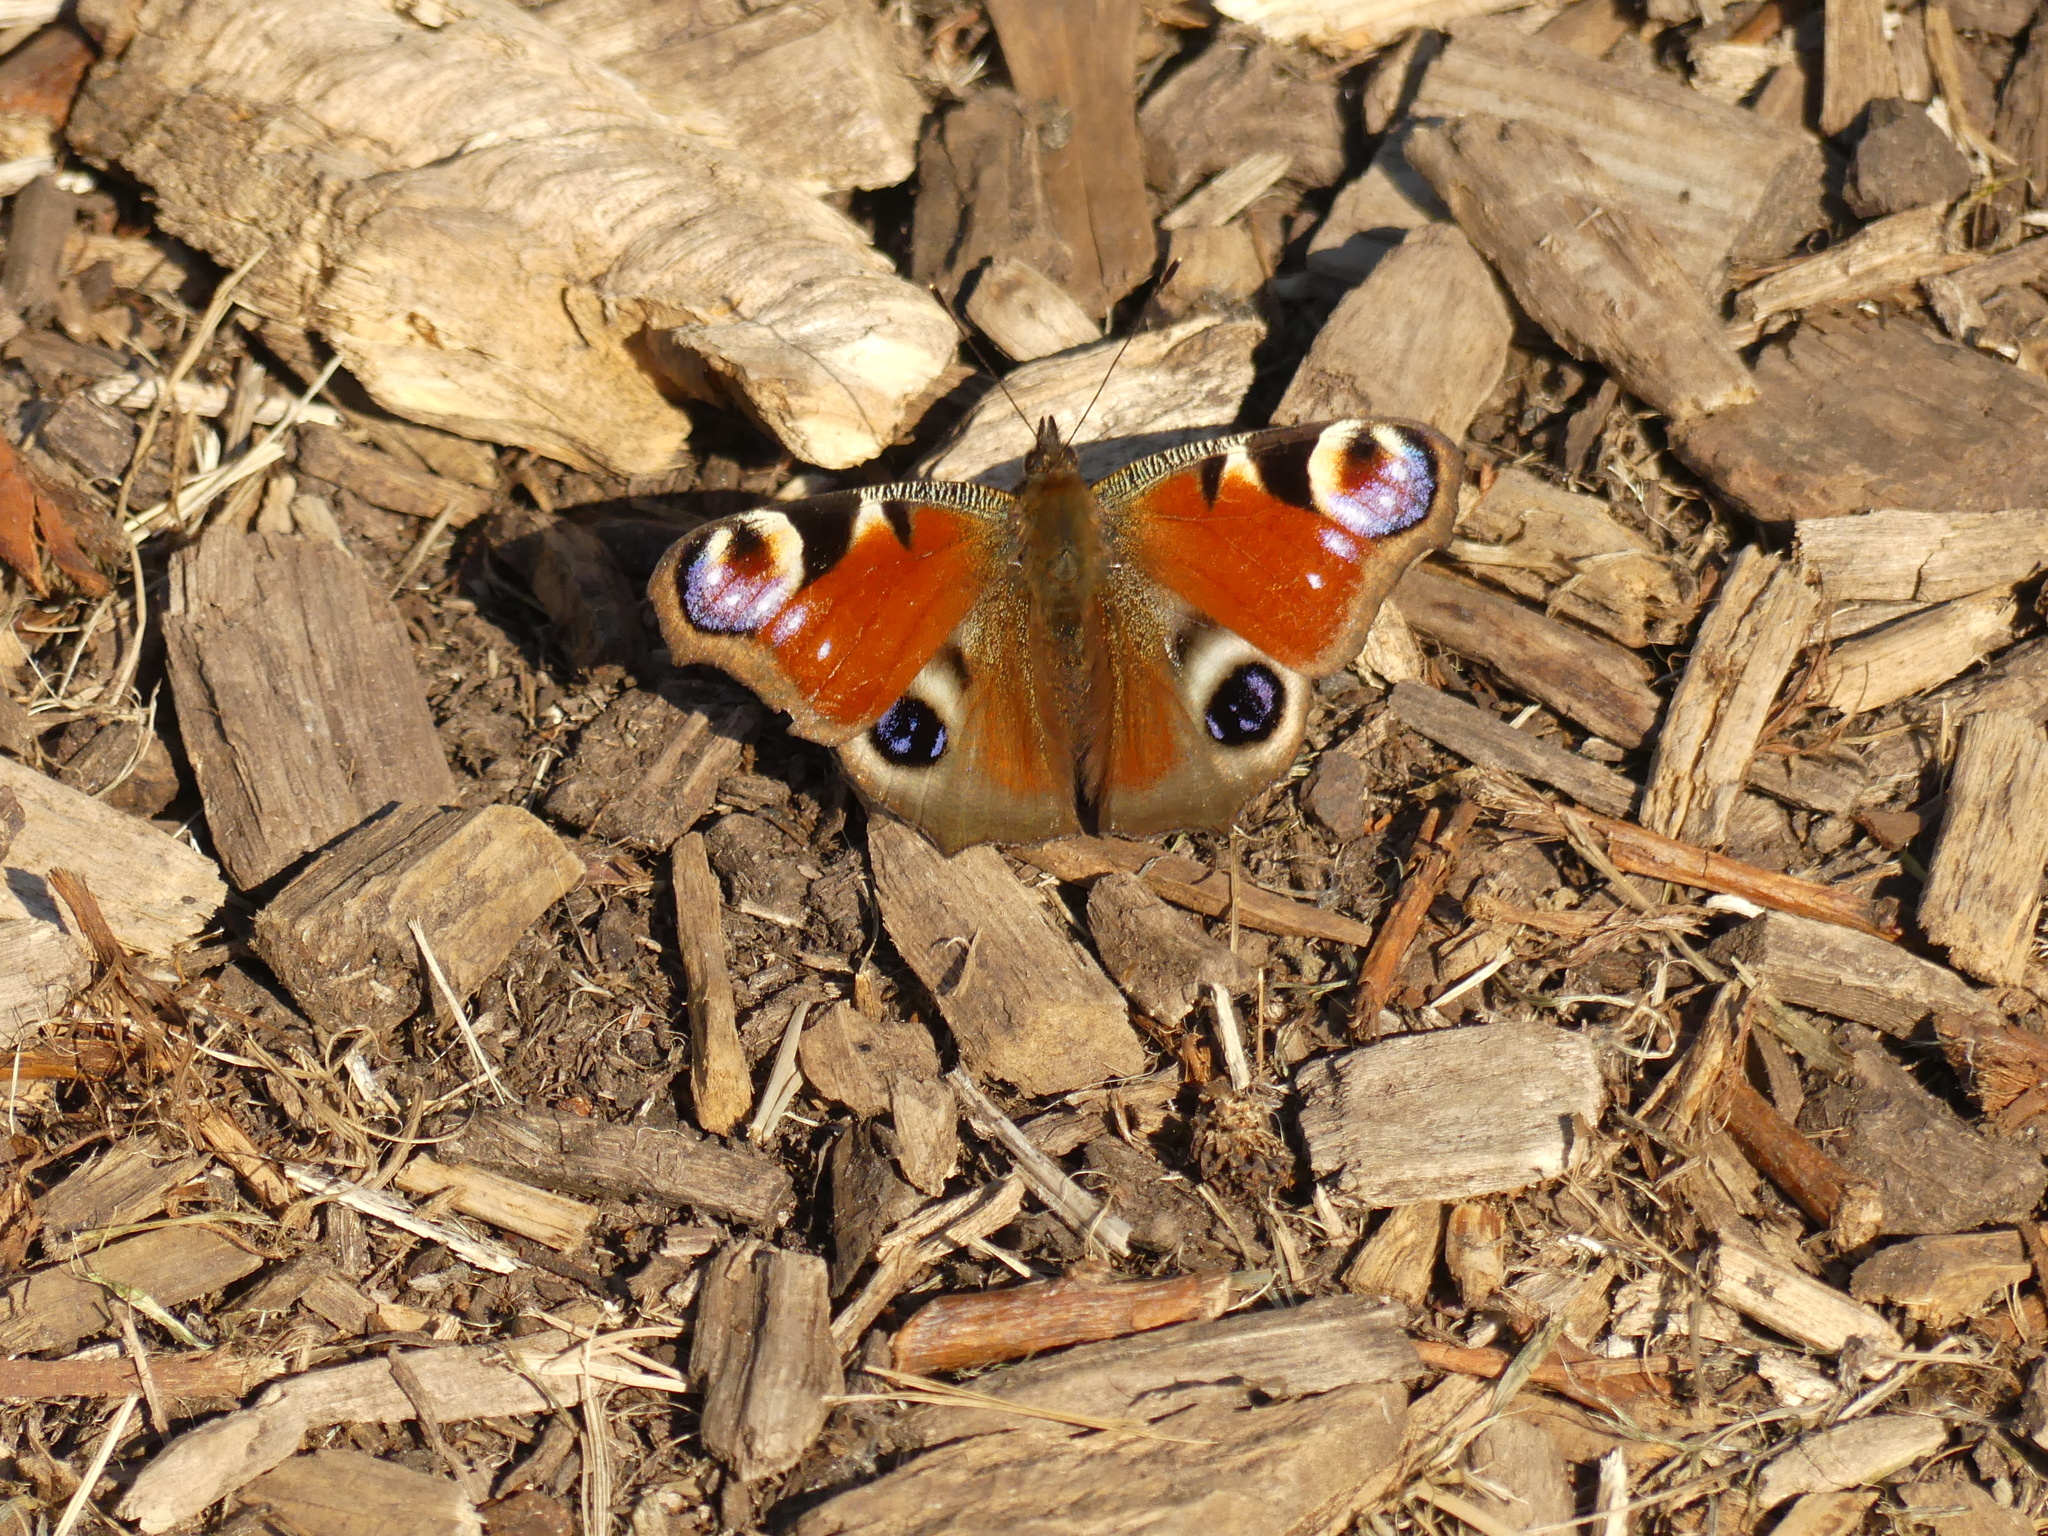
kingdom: Animalia
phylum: Arthropoda
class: Insecta
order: Lepidoptera
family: Nymphalidae
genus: Aglais
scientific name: Aglais io
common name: Peacock
